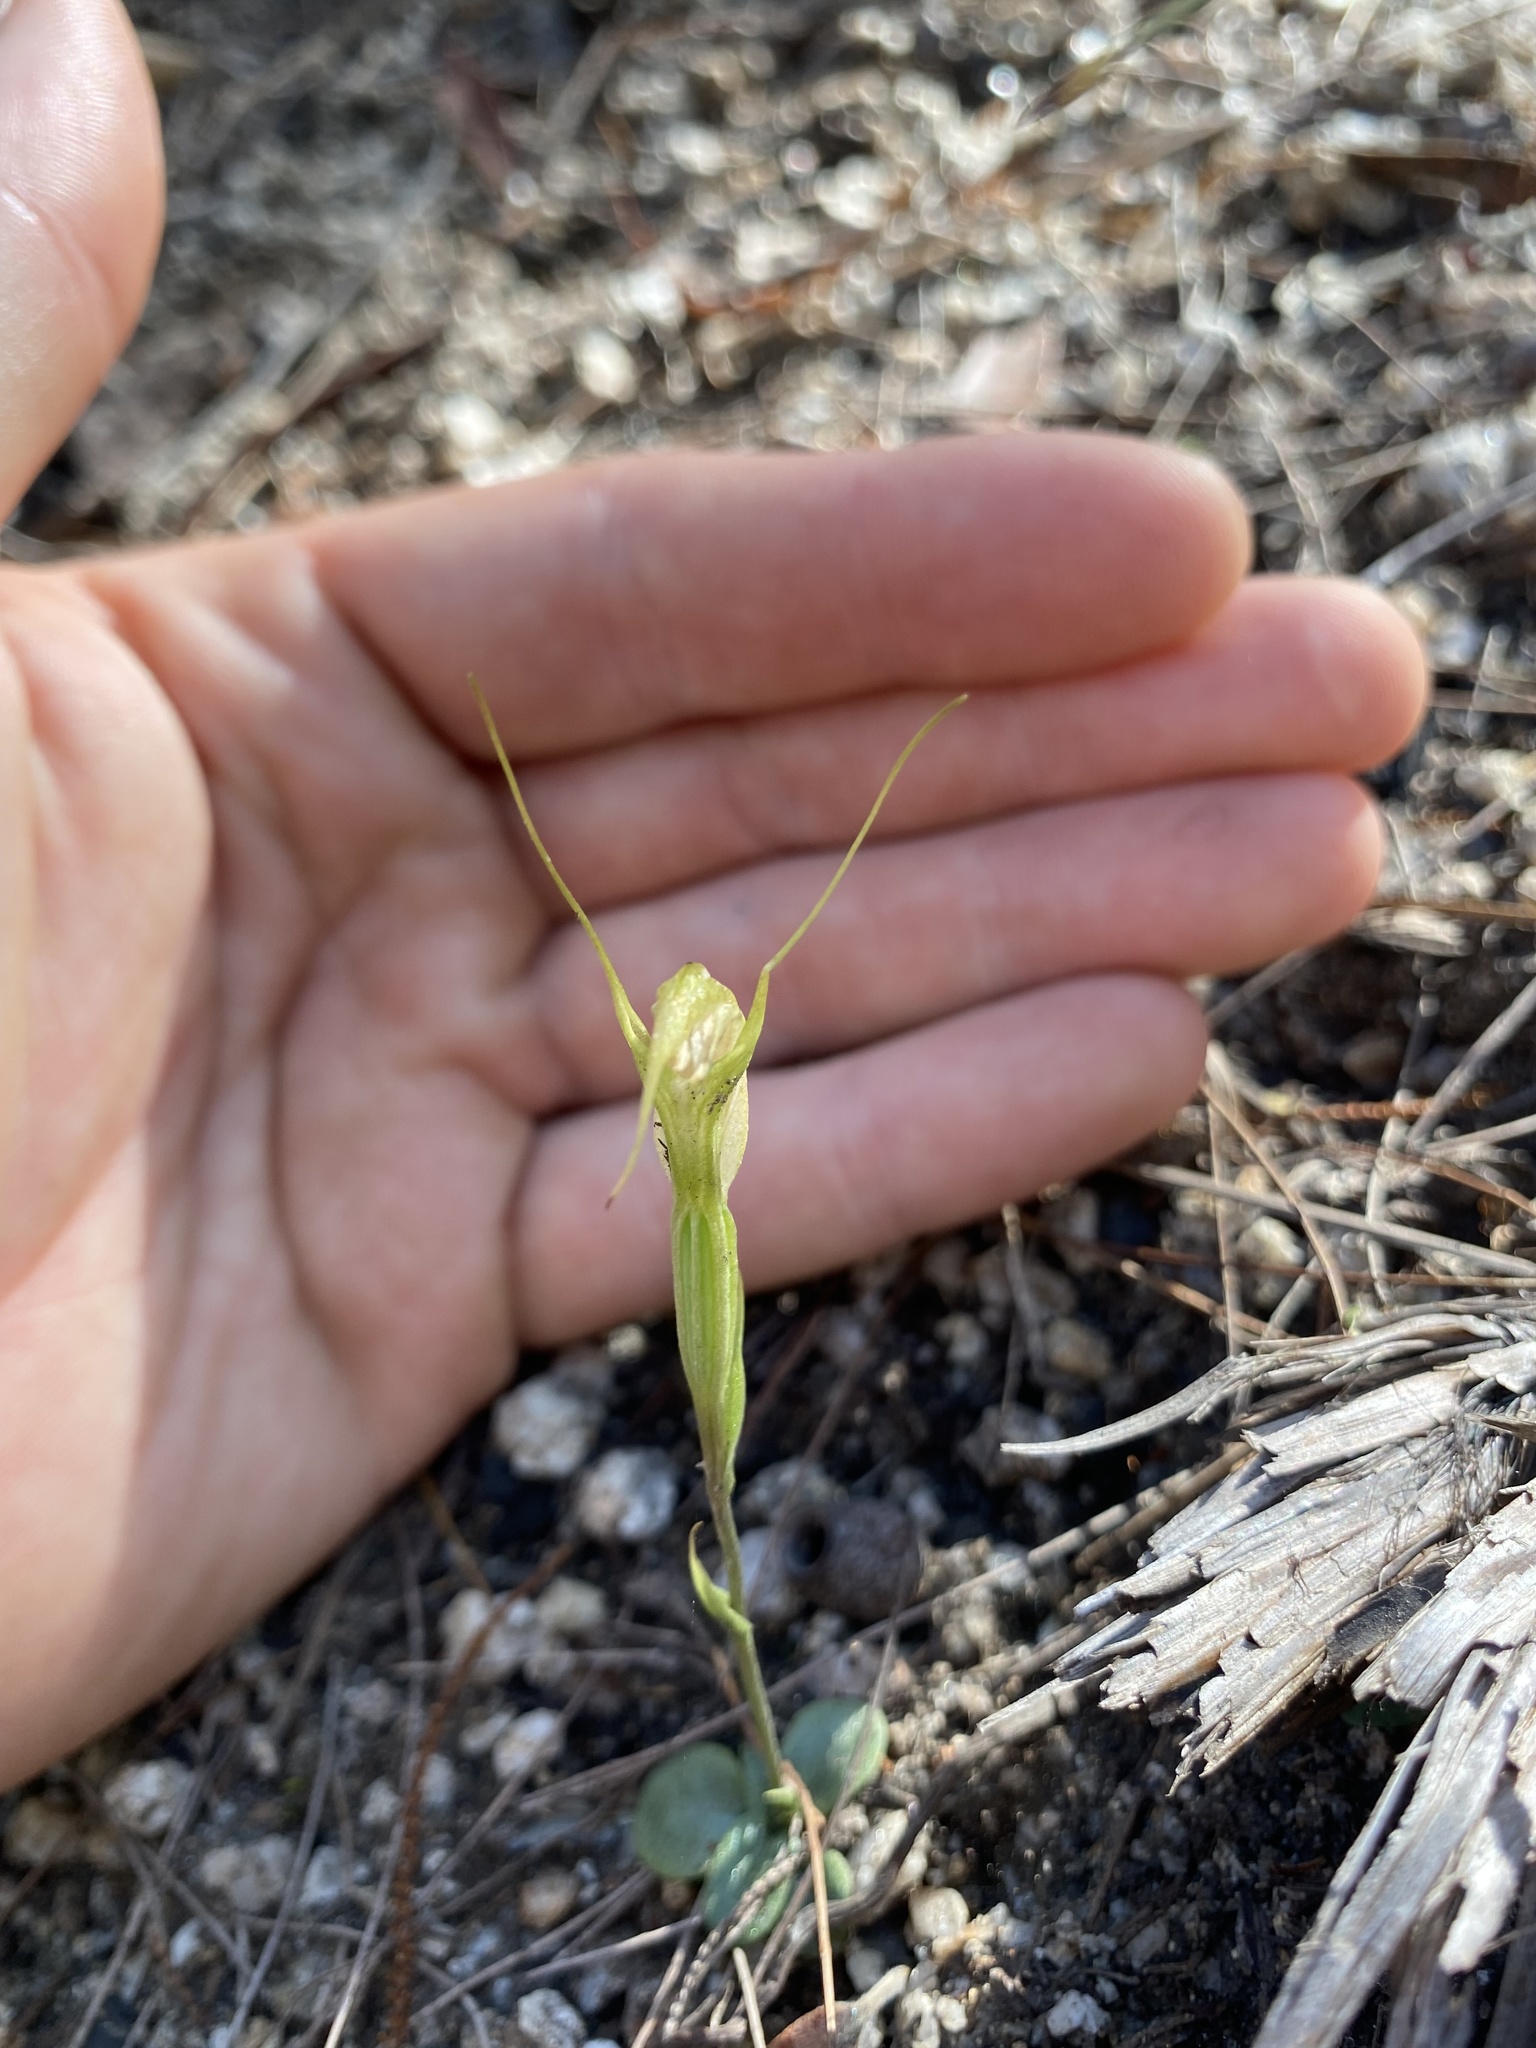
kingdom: Plantae
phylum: Tracheophyta
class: Liliopsida
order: Asparagales
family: Orchidaceae
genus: Pterostylis
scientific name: Pterostylis depauperata
